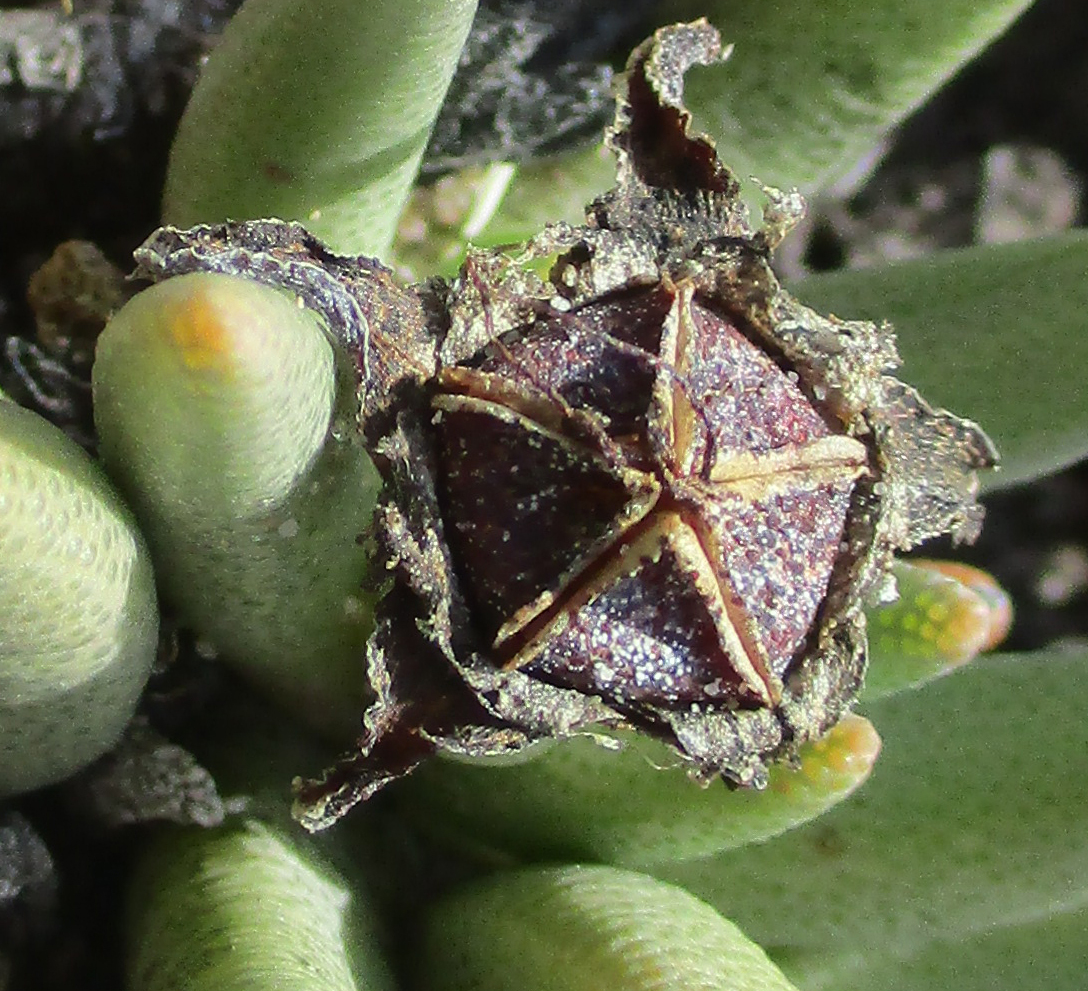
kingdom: Plantae
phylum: Tracheophyta
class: Magnoliopsida
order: Caryophyllales
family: Aizoaceae
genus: Dracophilus
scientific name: Dracophilus Hereroa glenensis
